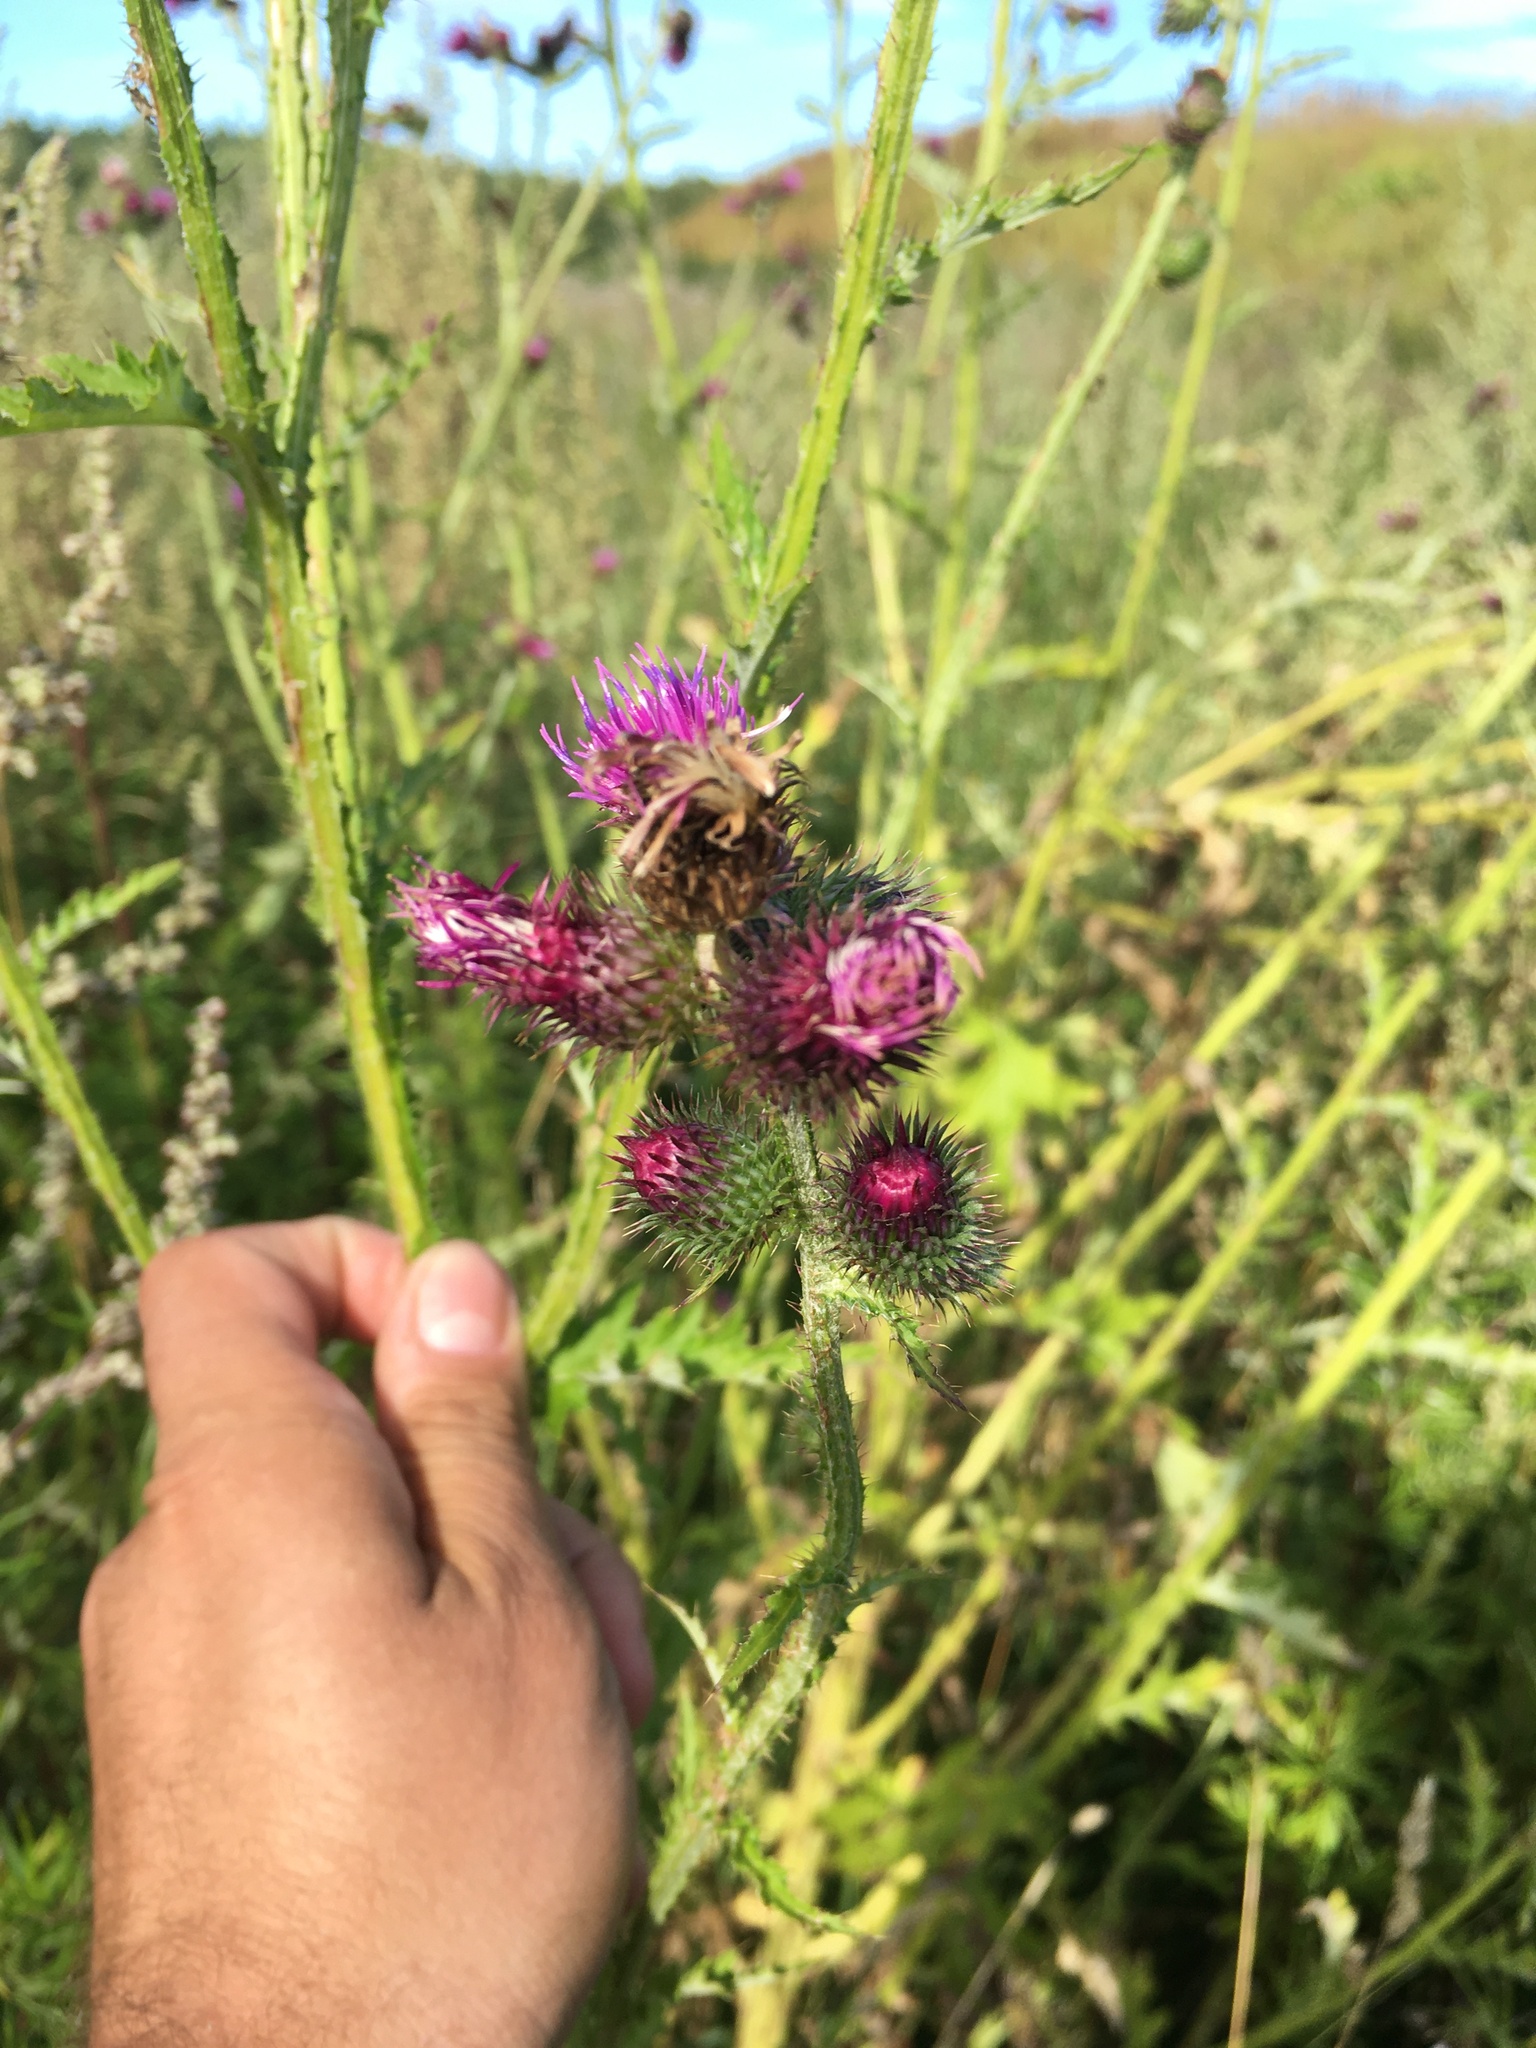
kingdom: Plantae
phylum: Tracheophyta
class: Magnoliopsida
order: Asterales
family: Asteraceae
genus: Carduus
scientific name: Carduus crispus
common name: Welted thistle
